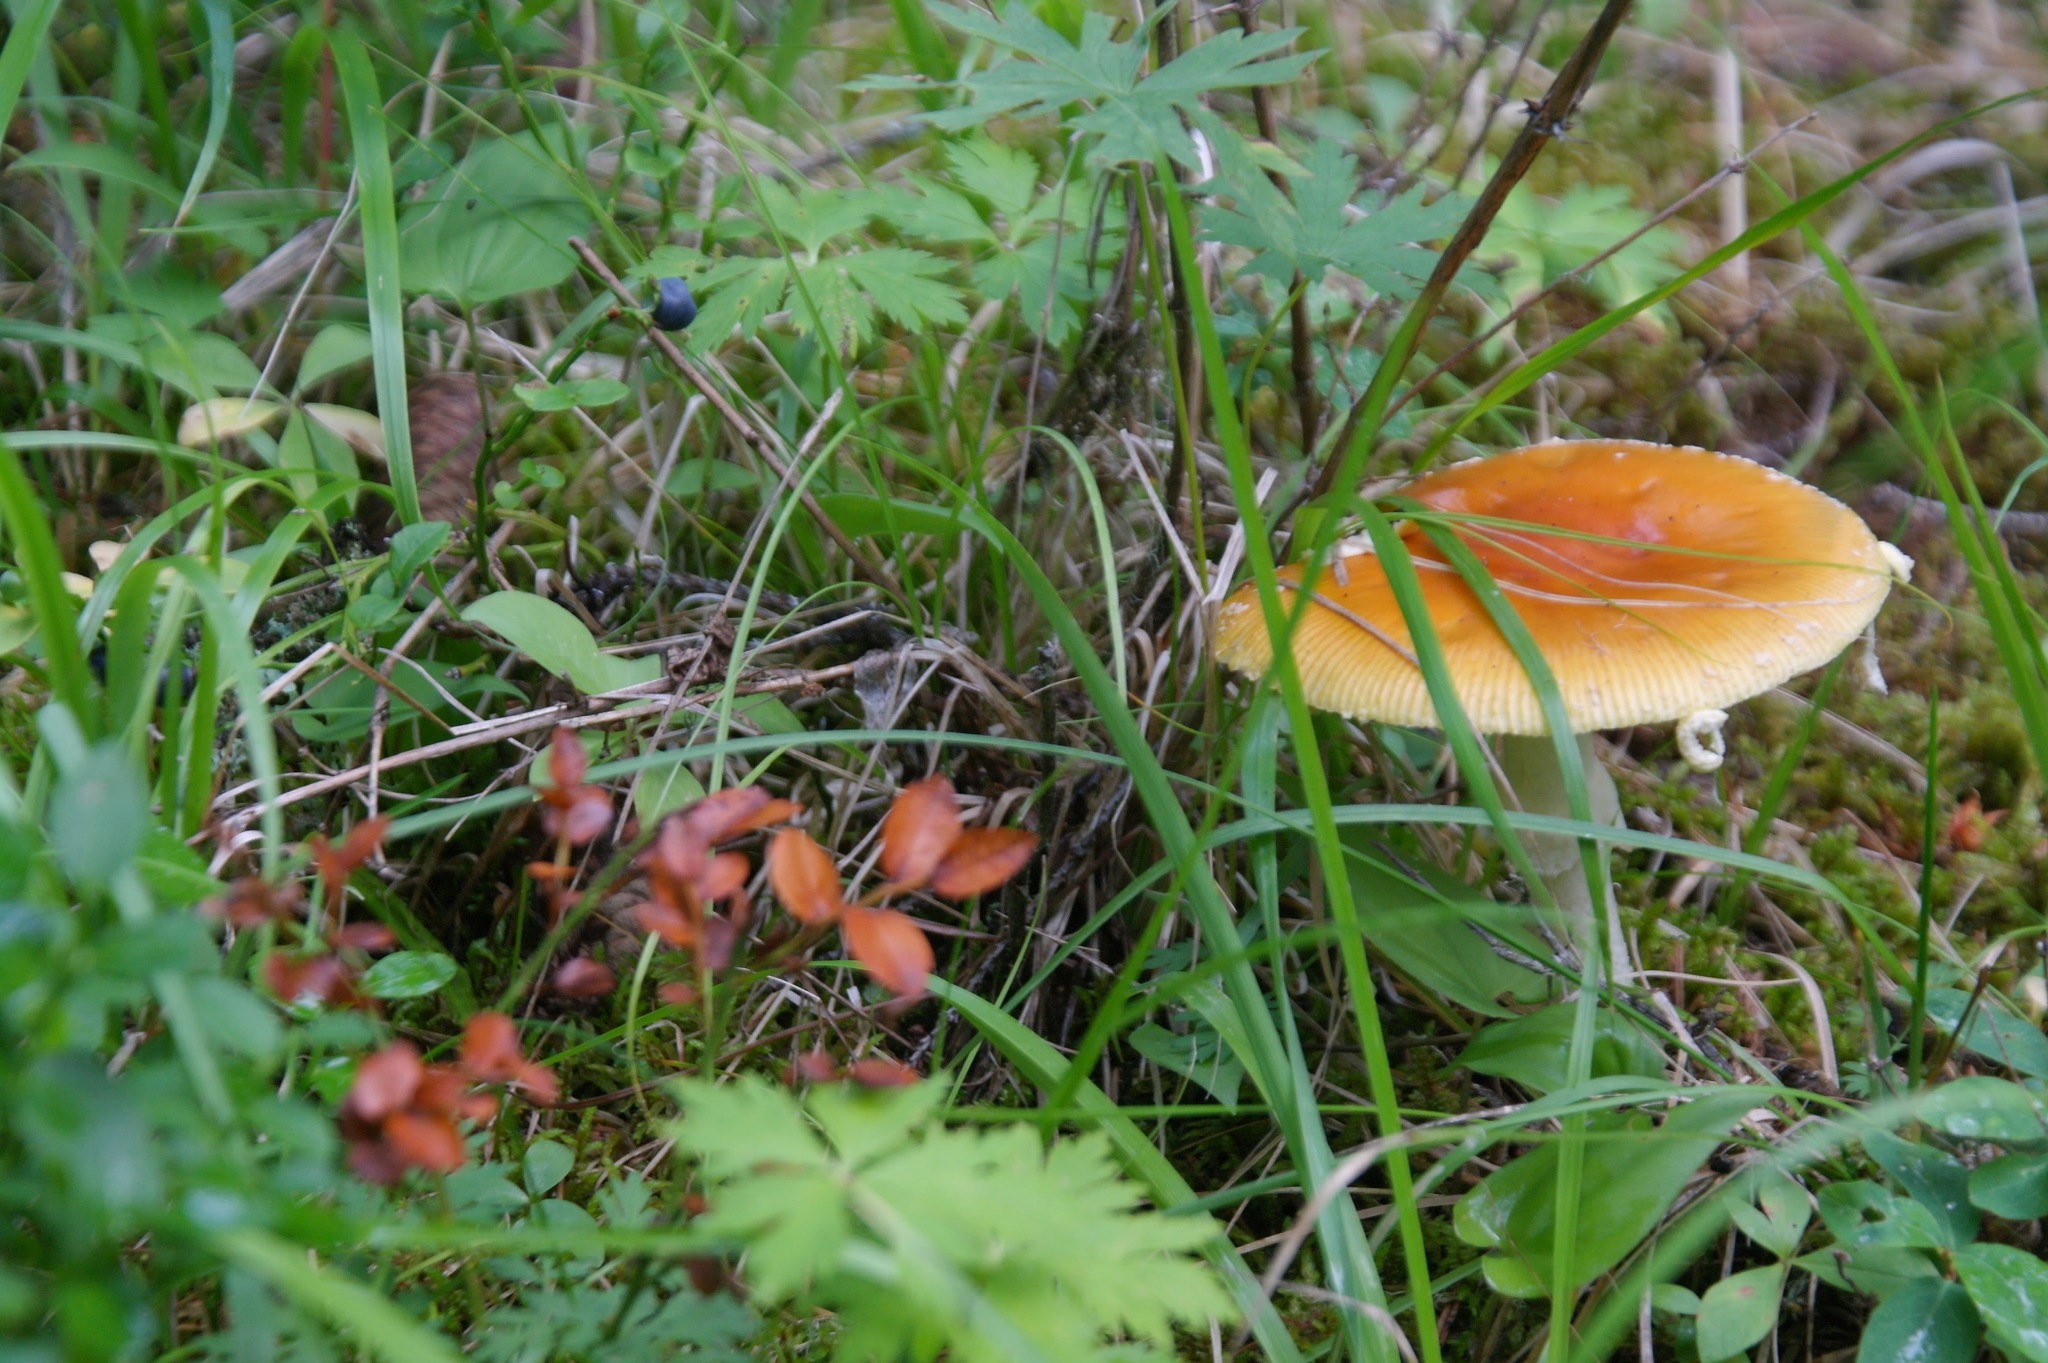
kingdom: Fungi
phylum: Basidiomycota
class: Agaricomycetes
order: Agaricales
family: Amanitaceae
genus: Amanita
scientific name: Amanita muscaria
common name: Fly agaric
